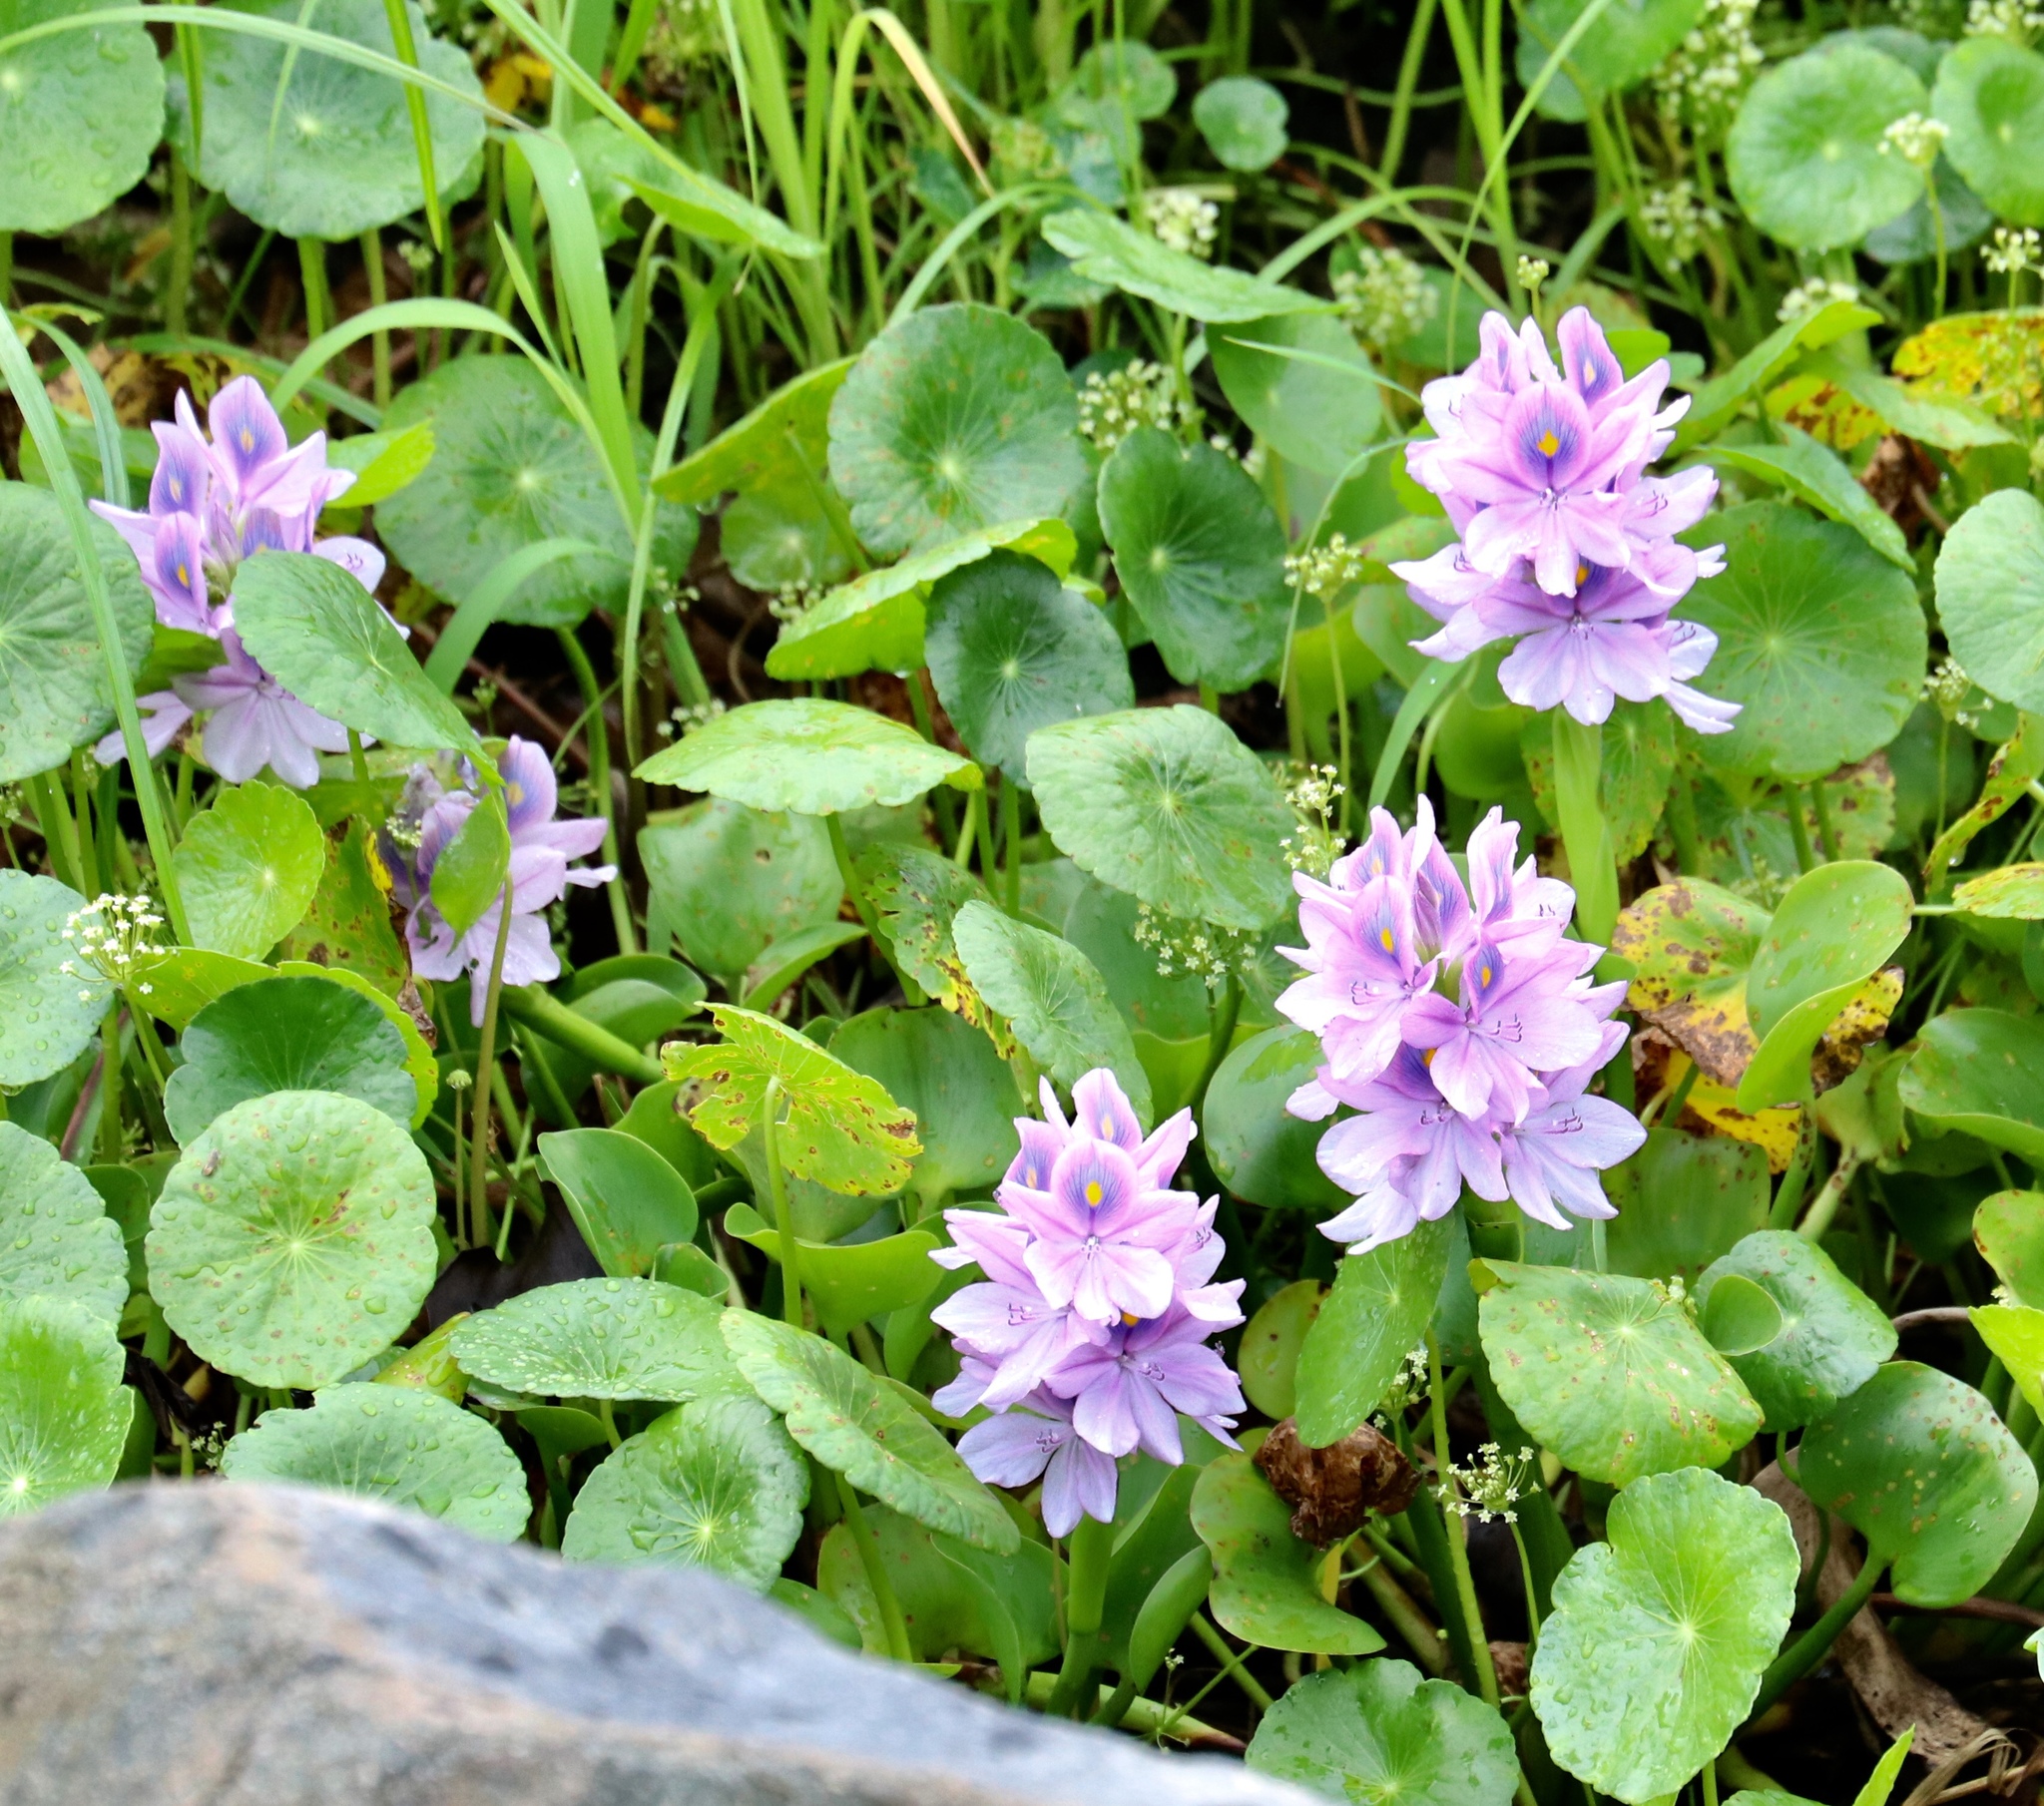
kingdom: Plantae
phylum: Tracheophyta
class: Liliopsida
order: Commelinales
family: Pontederiaceae
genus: Pontederia
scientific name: Pontederia crassipes
